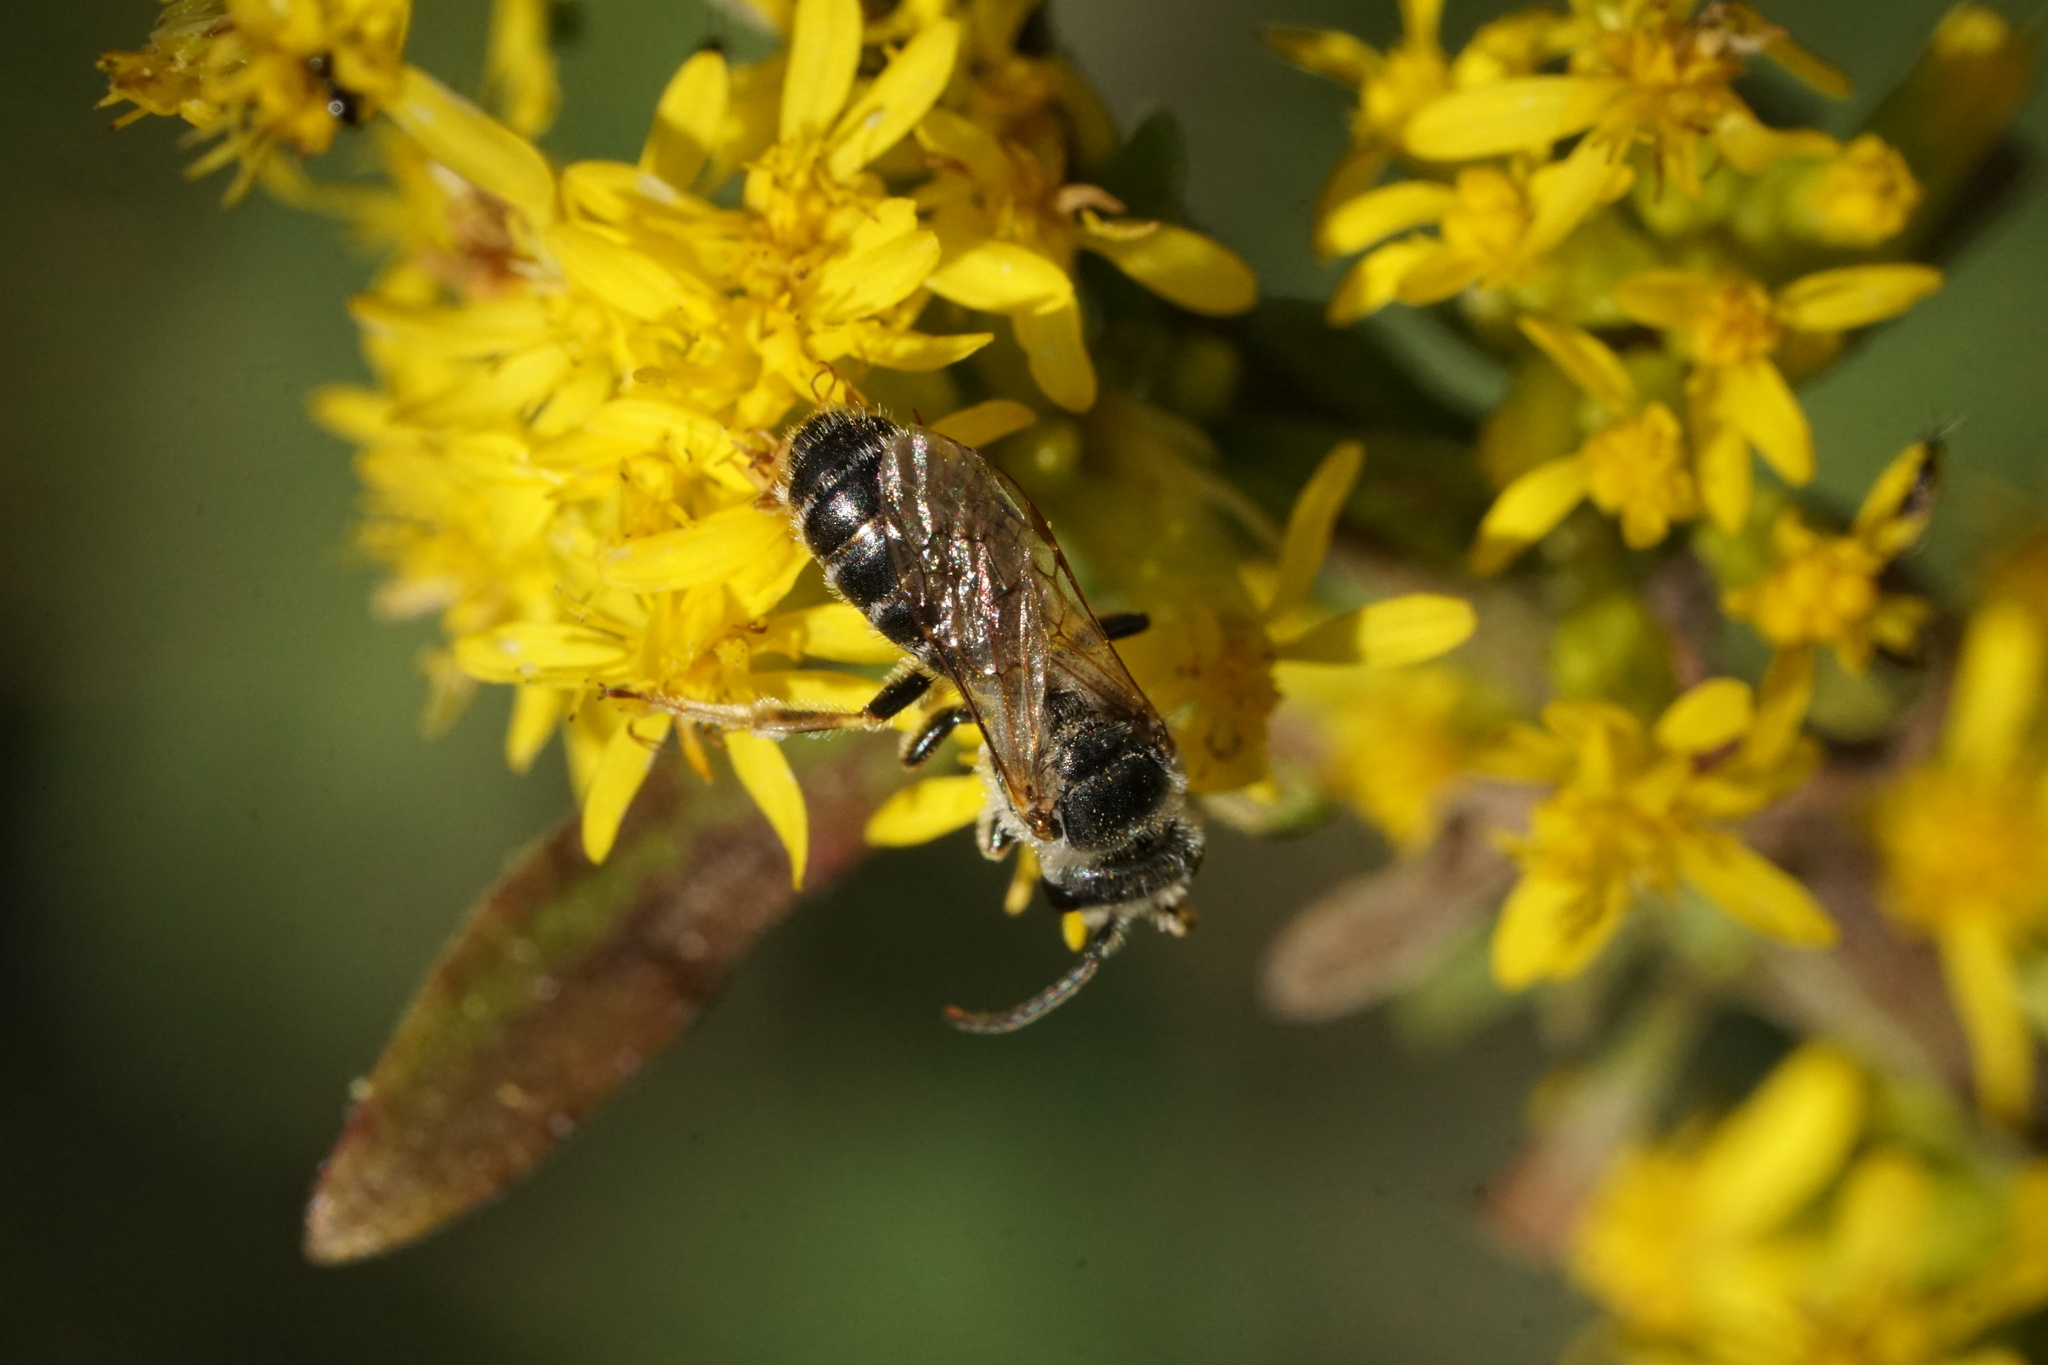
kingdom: Animalia
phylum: Arthropoda
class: Insecta
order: Hymenoptera
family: Halictidae
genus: Halictus
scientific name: Halictus ligatus
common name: Ligated furrow bee
